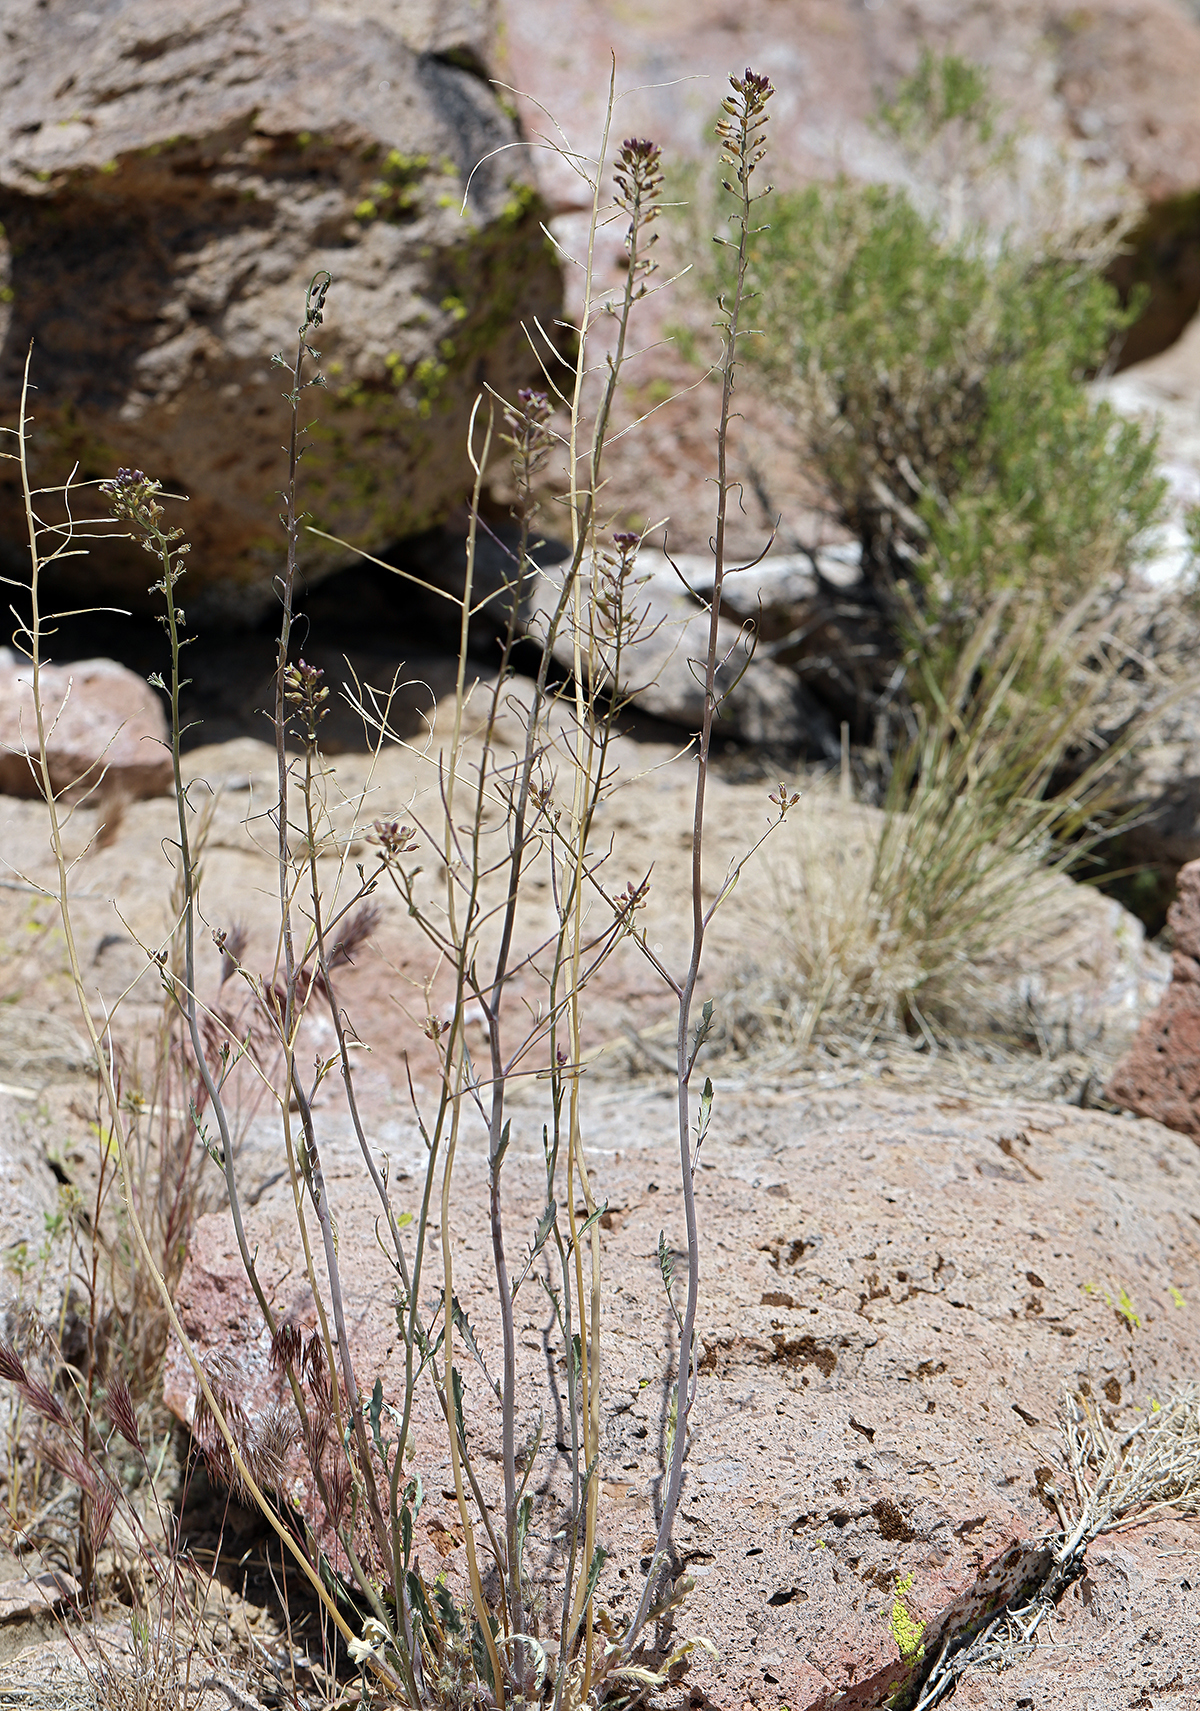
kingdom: Plantae
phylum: Tracheophyta
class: Magnoliopsida
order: Brassicales
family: Brassicaceae
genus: Streptanthus
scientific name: Streptanthus pilosus
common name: Chocolate drops
